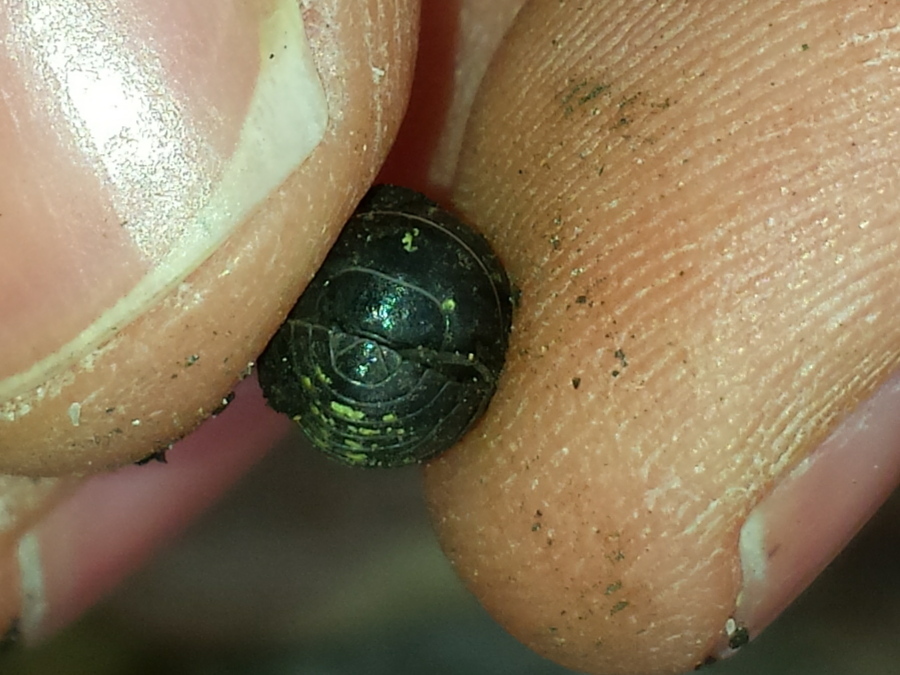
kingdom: Animalia
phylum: Arthropoda
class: Malacostraca
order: Isopoda
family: Armadillidiidae
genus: Armadillidium
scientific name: Armadillidium vulgare
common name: Common pill woodlouse
